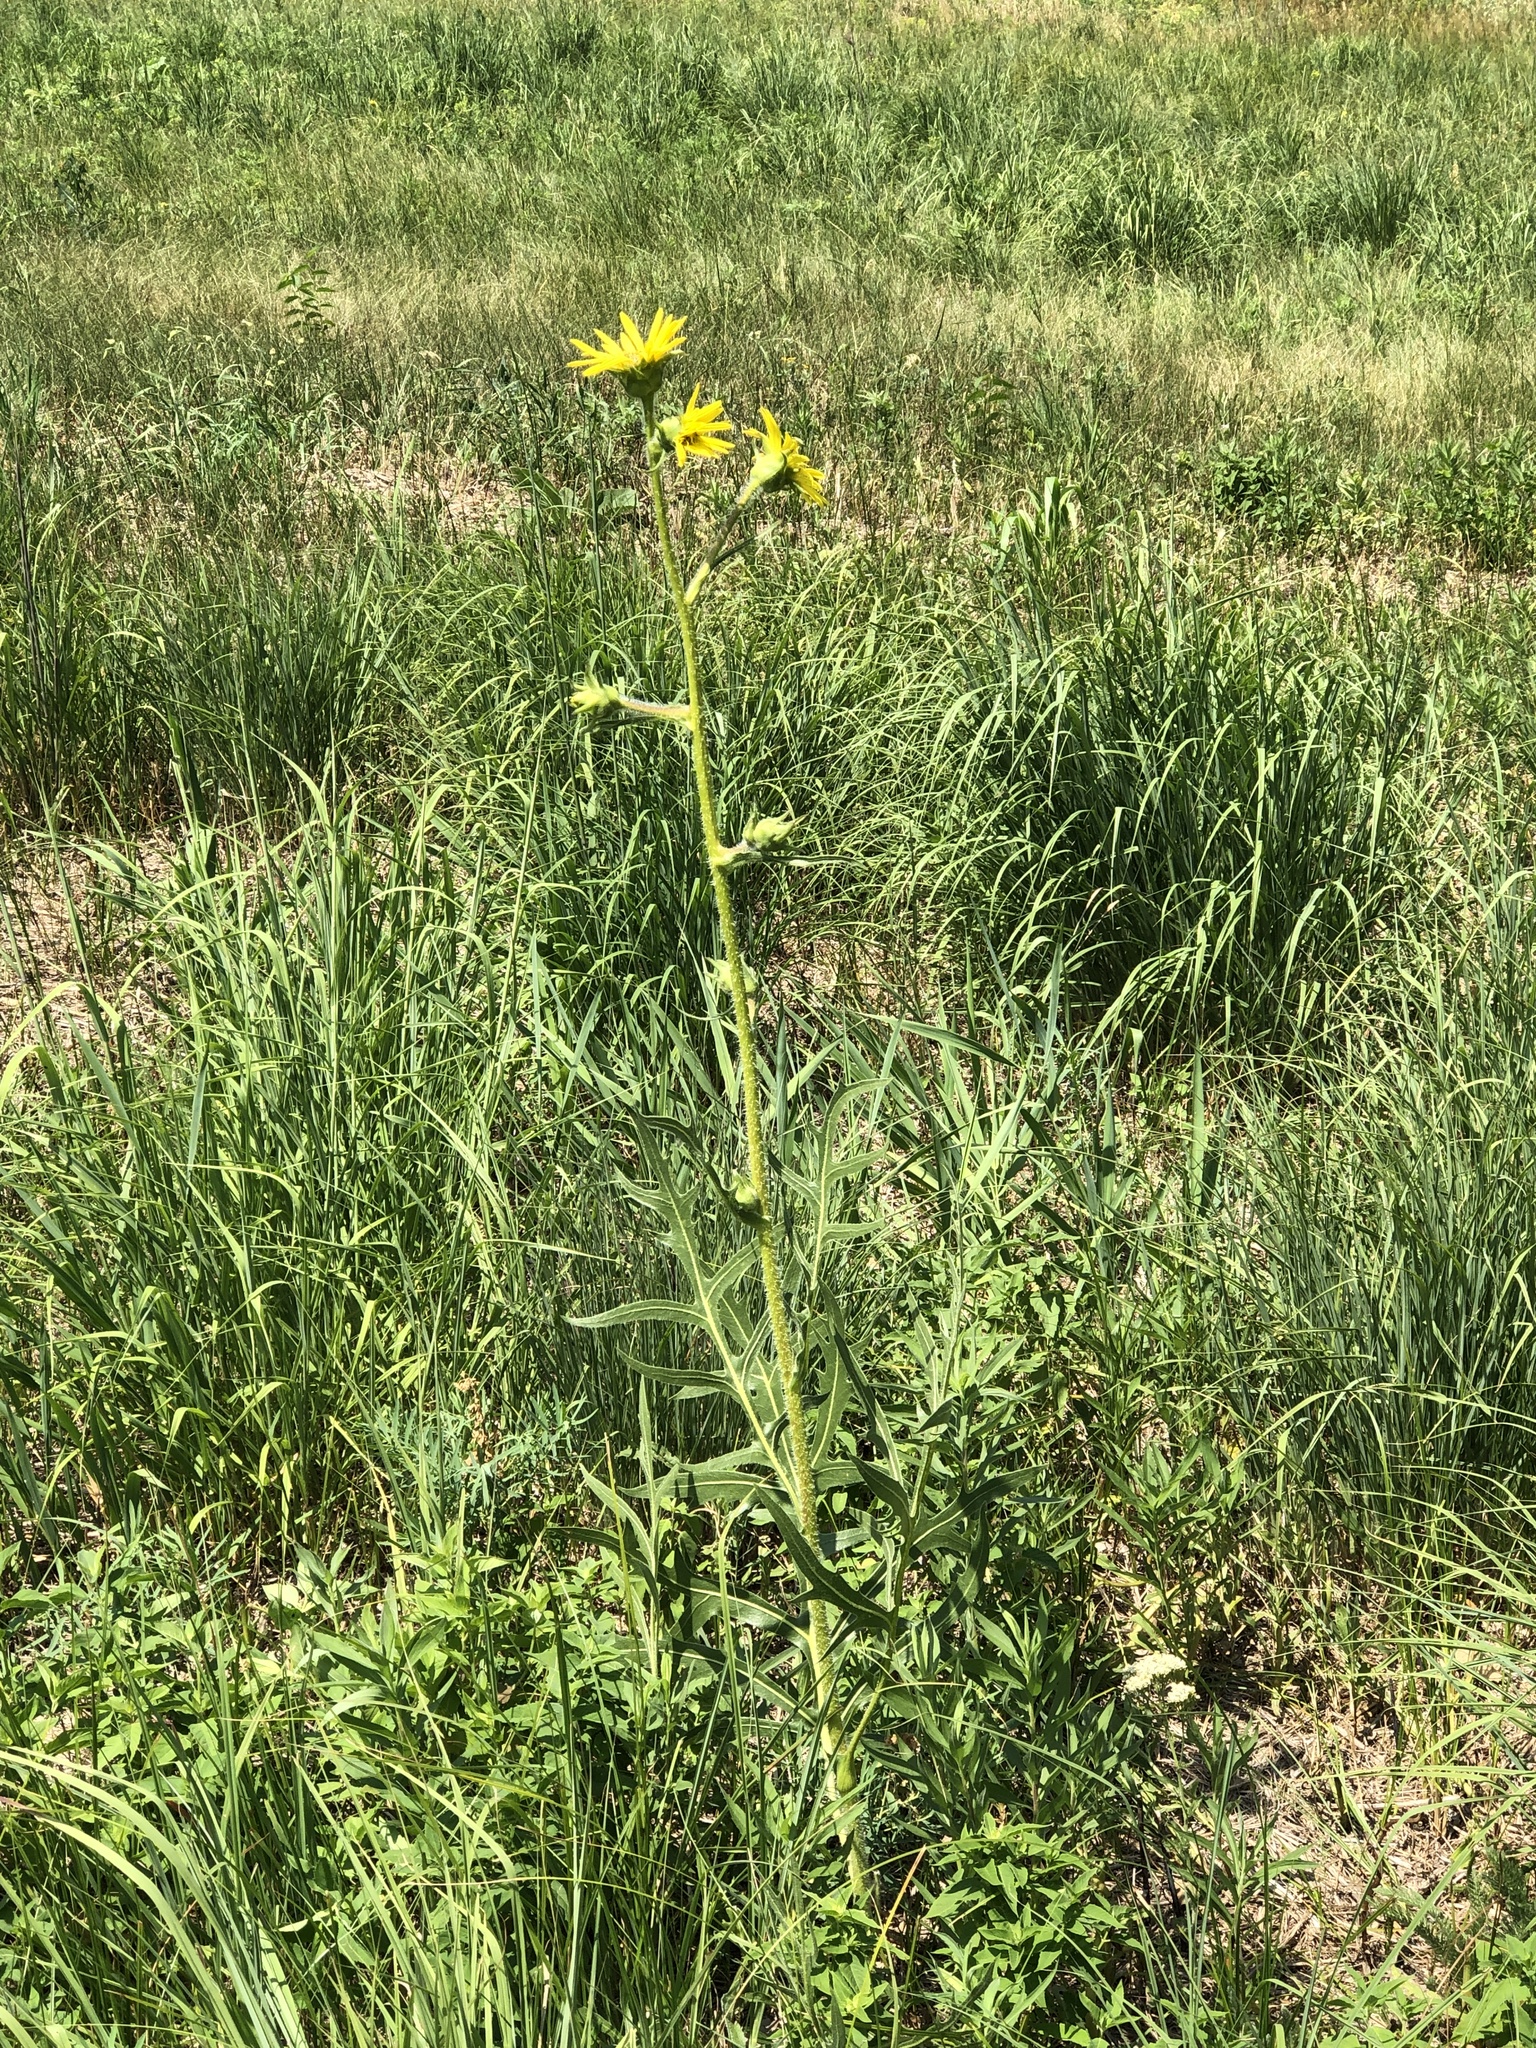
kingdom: Plantae
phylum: Tracheophyta
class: Magnoliopsida
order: Asterales
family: Asteraceae
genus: Silphium
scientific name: Silphium laciniatum
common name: Polarplant
